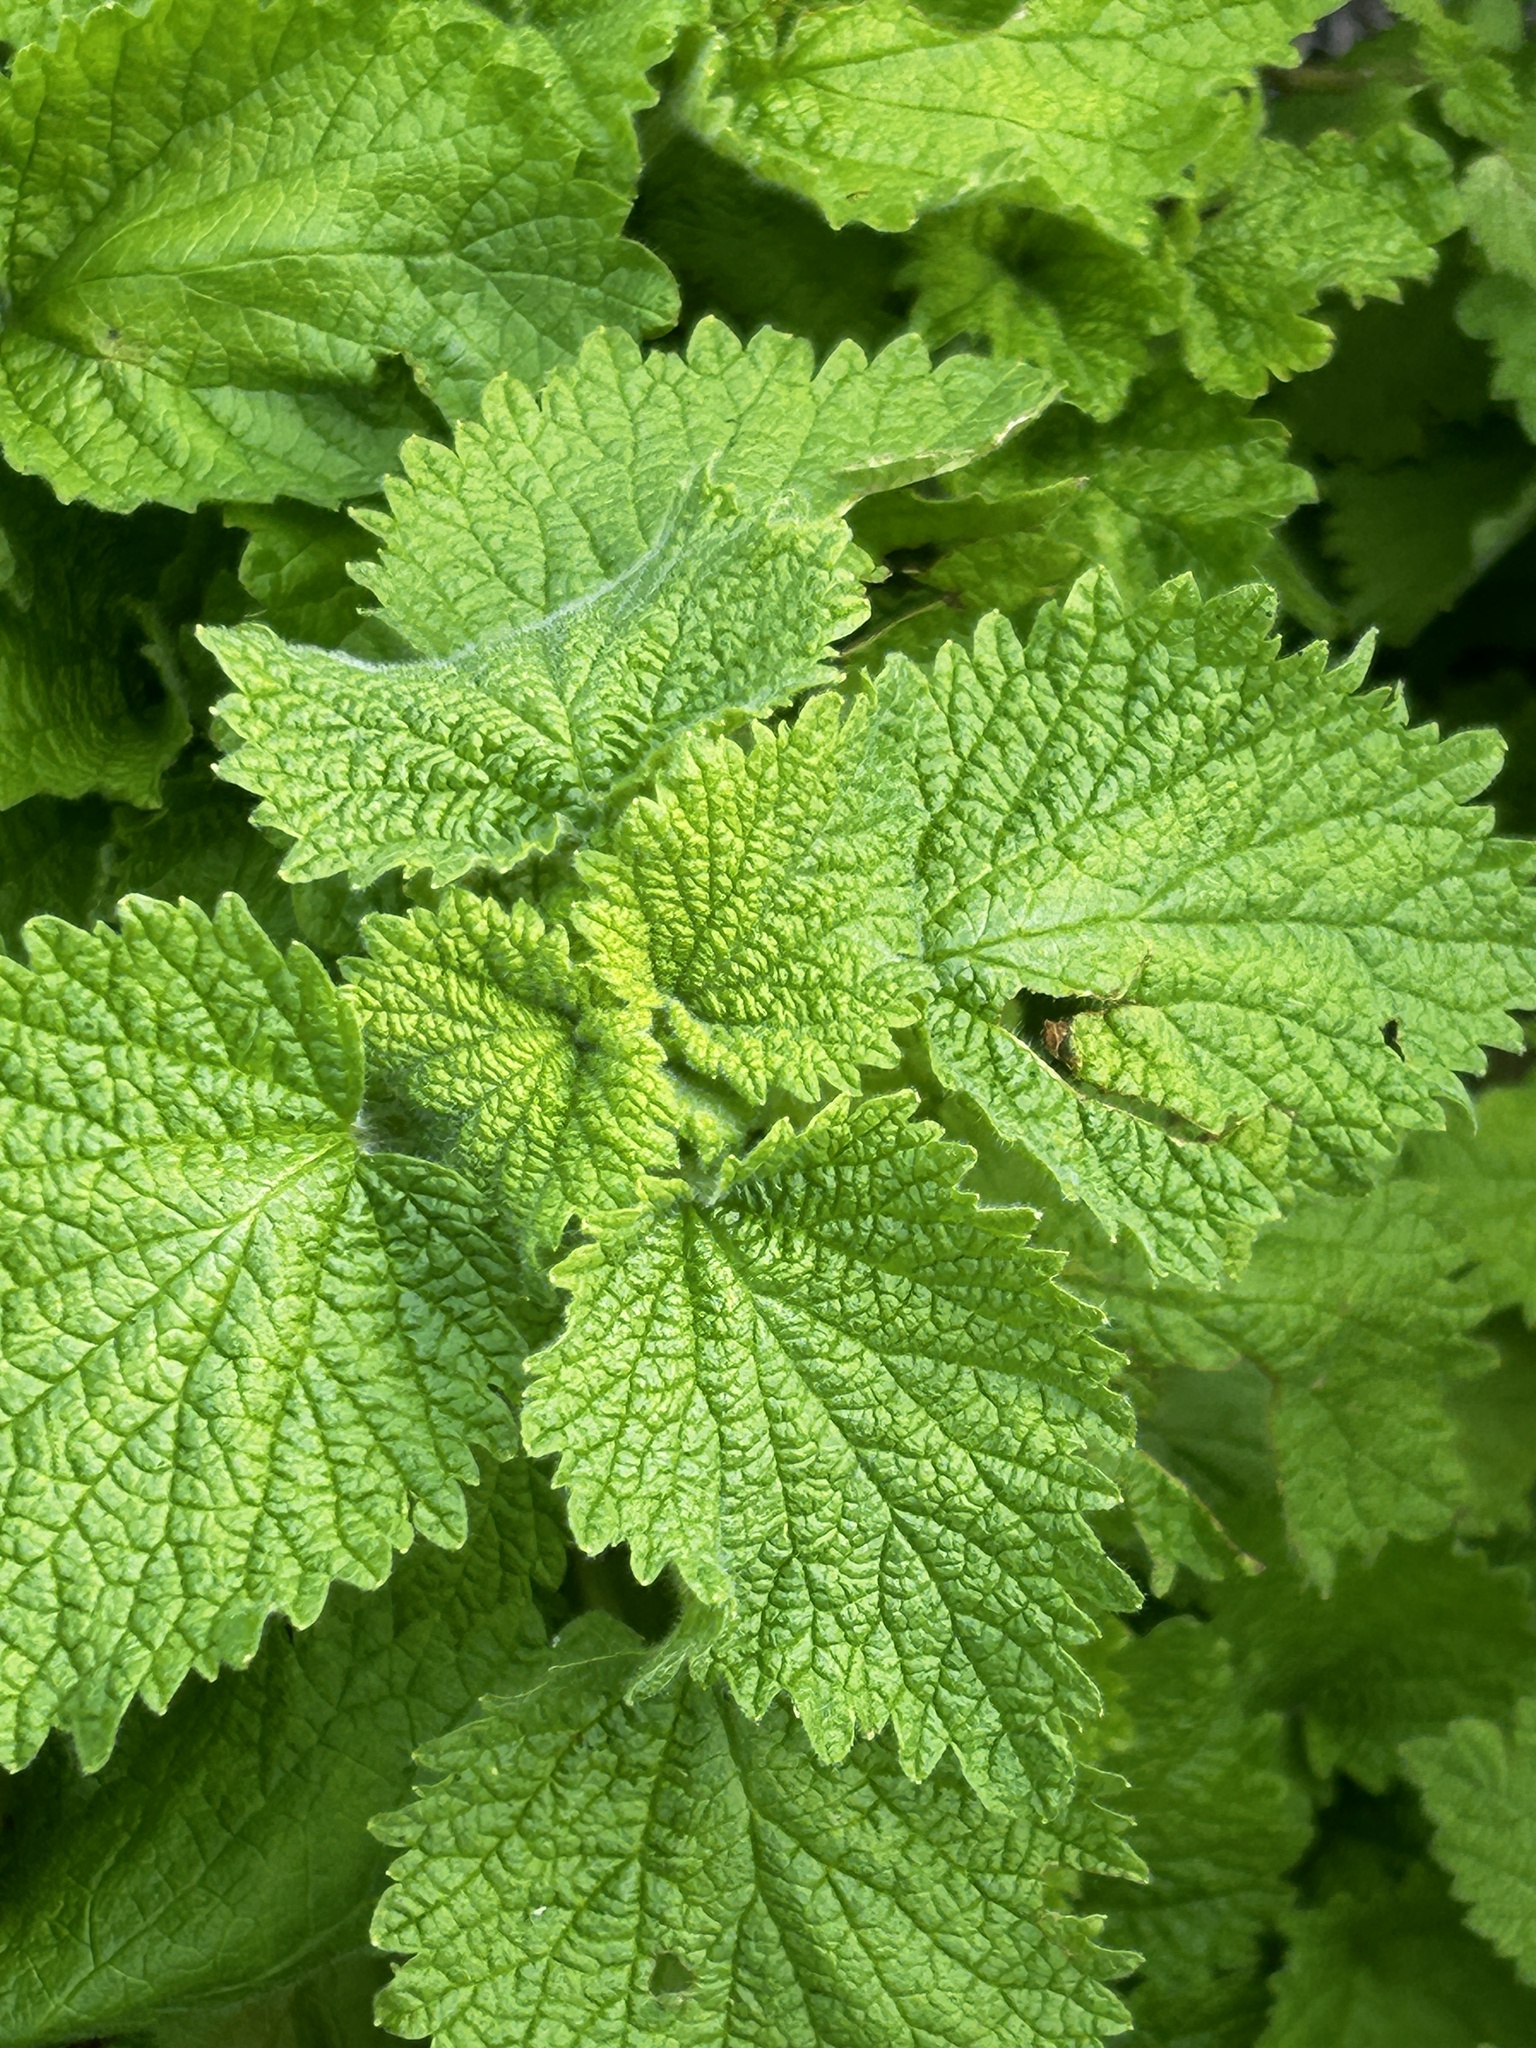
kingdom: Plantae
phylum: Tracheophyta
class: Magnoliopsida
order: Lamiales
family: Lamiaceae
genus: Pseudodictamnus
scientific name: Pseudodictamnus africanus
